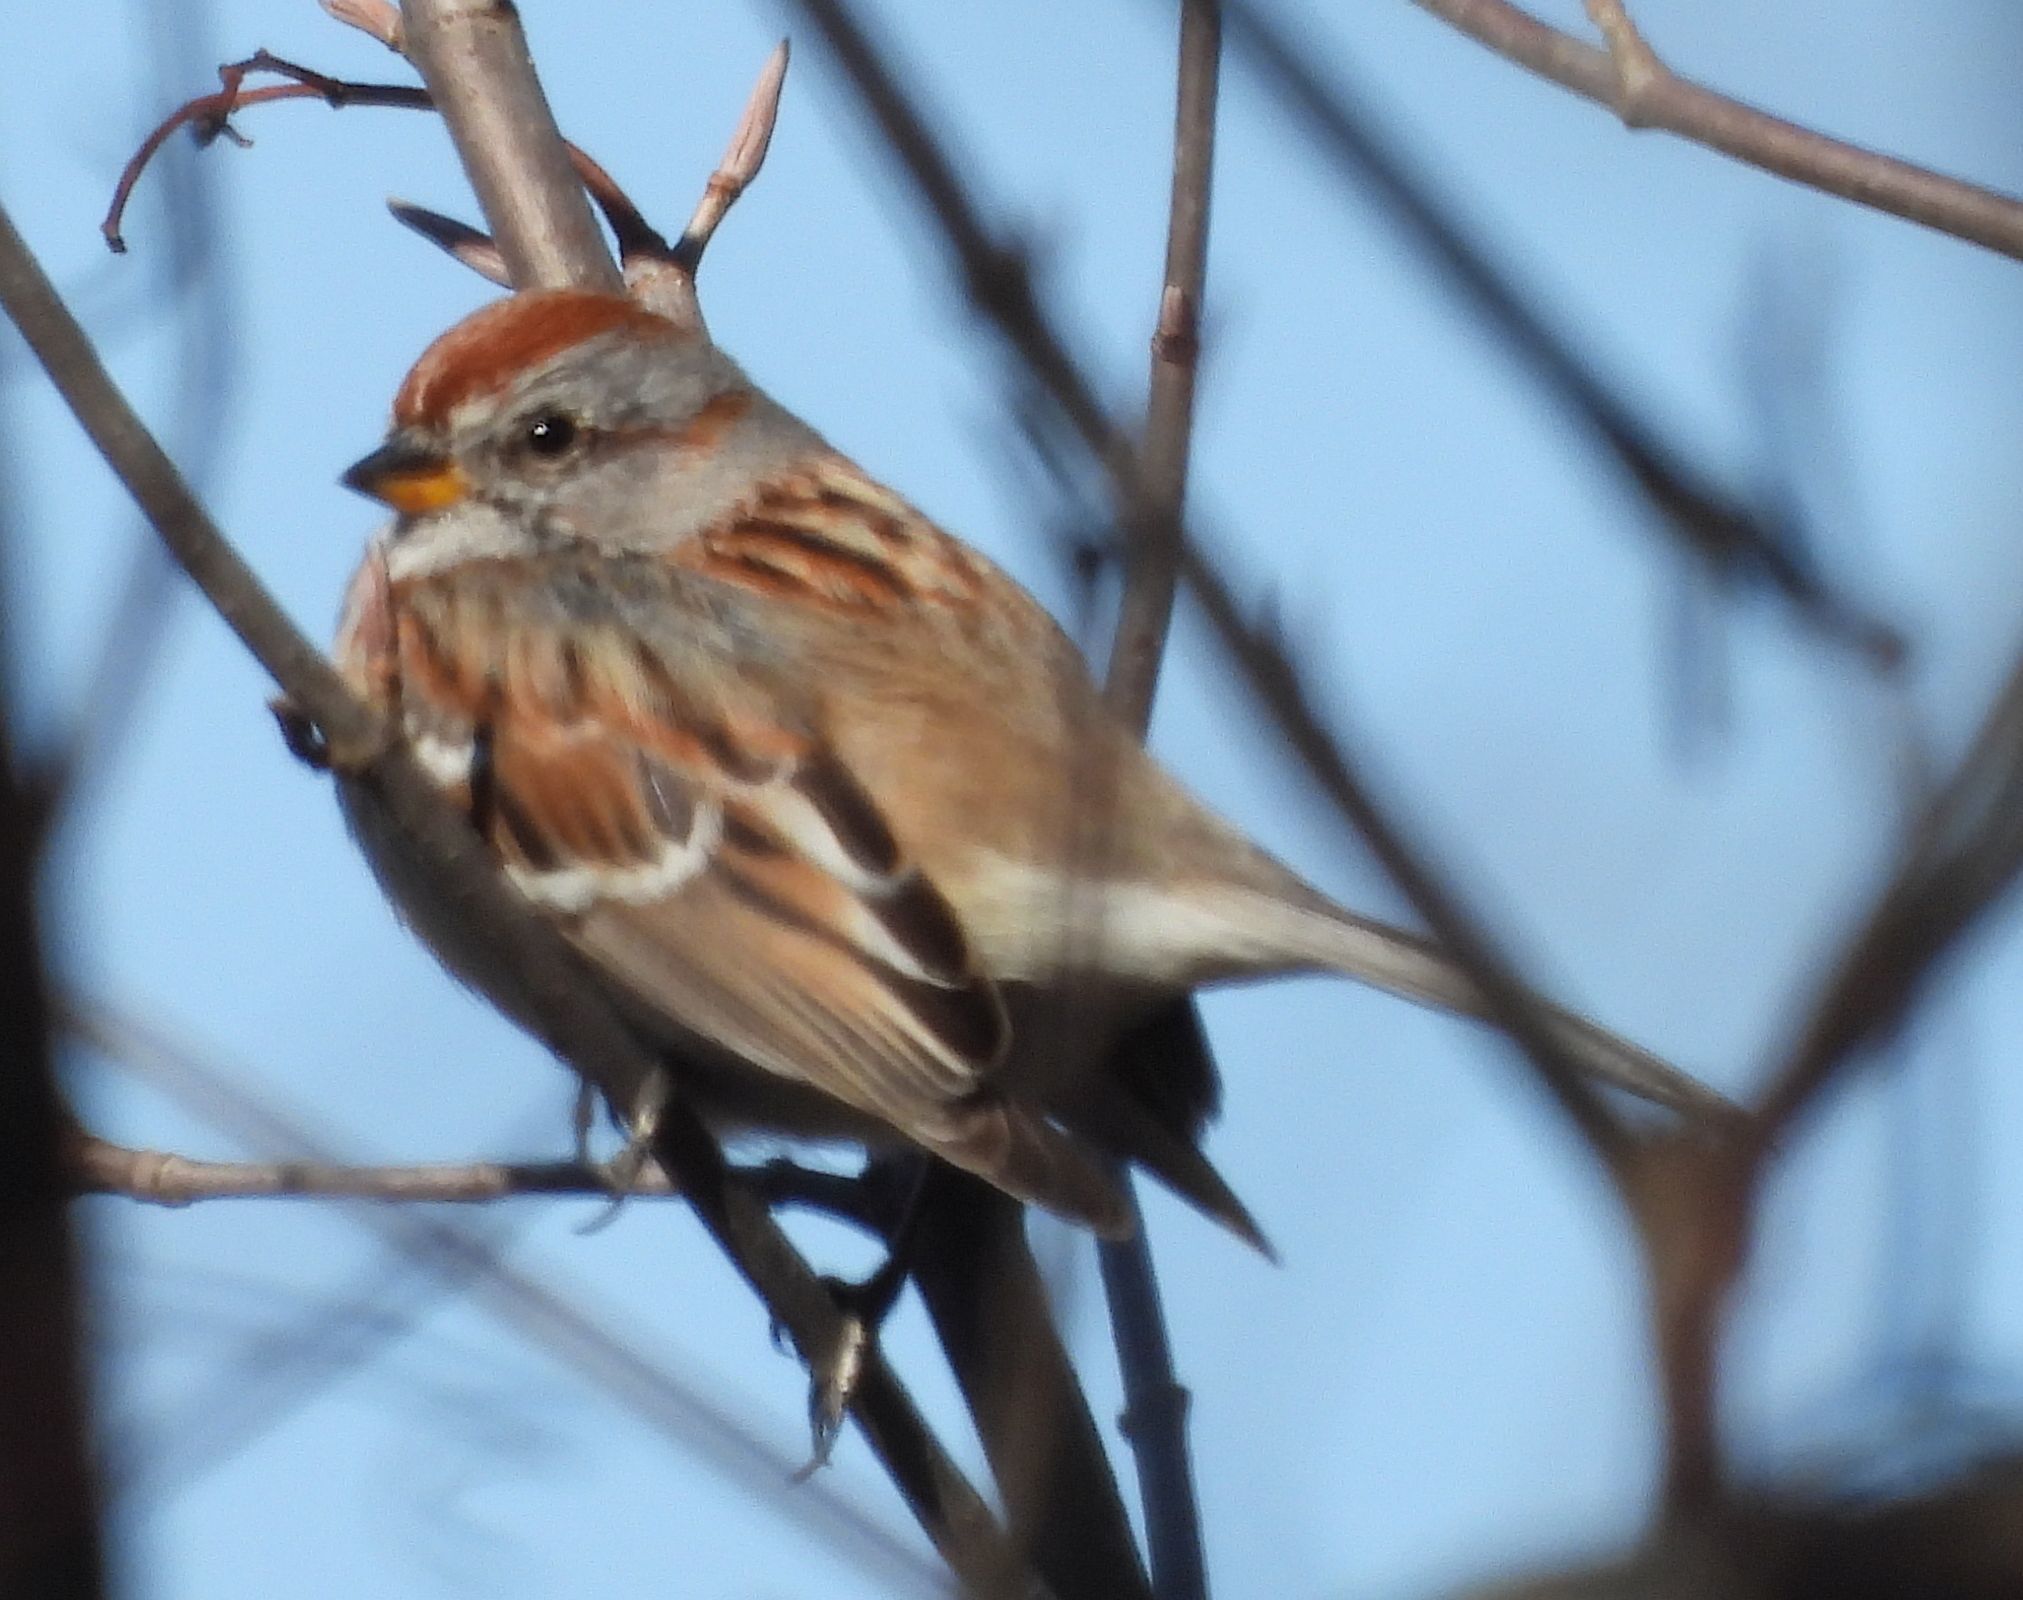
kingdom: Animalia
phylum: Chordata
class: Aves
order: Passeriformes
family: Passerellidae
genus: Spizelloides
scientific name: Spizelloides arborea
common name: American tree sparrow
